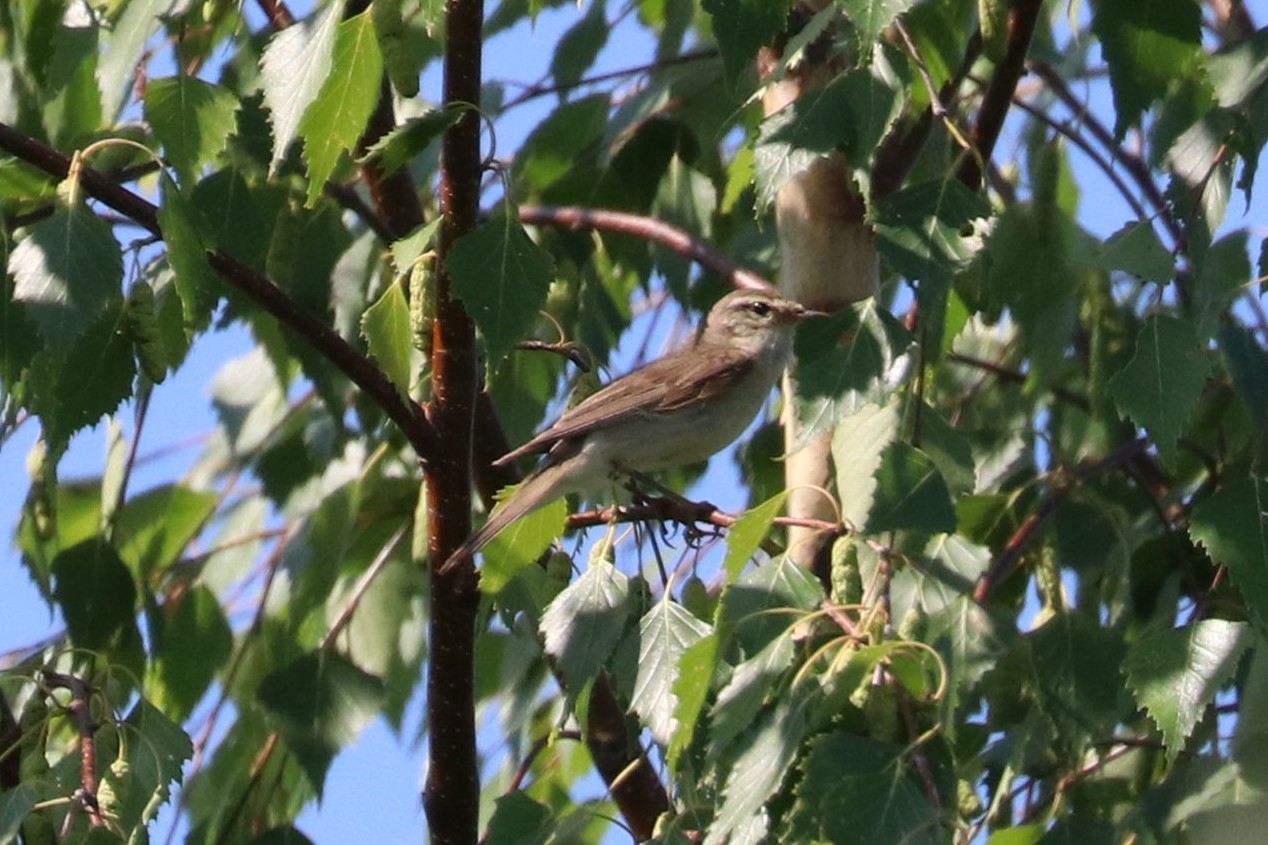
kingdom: Animalia
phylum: Chordata
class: Aves
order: Passeriformes
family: Acrocephalidae
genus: Iduna
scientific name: Iduna caligata
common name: Booted warbler
